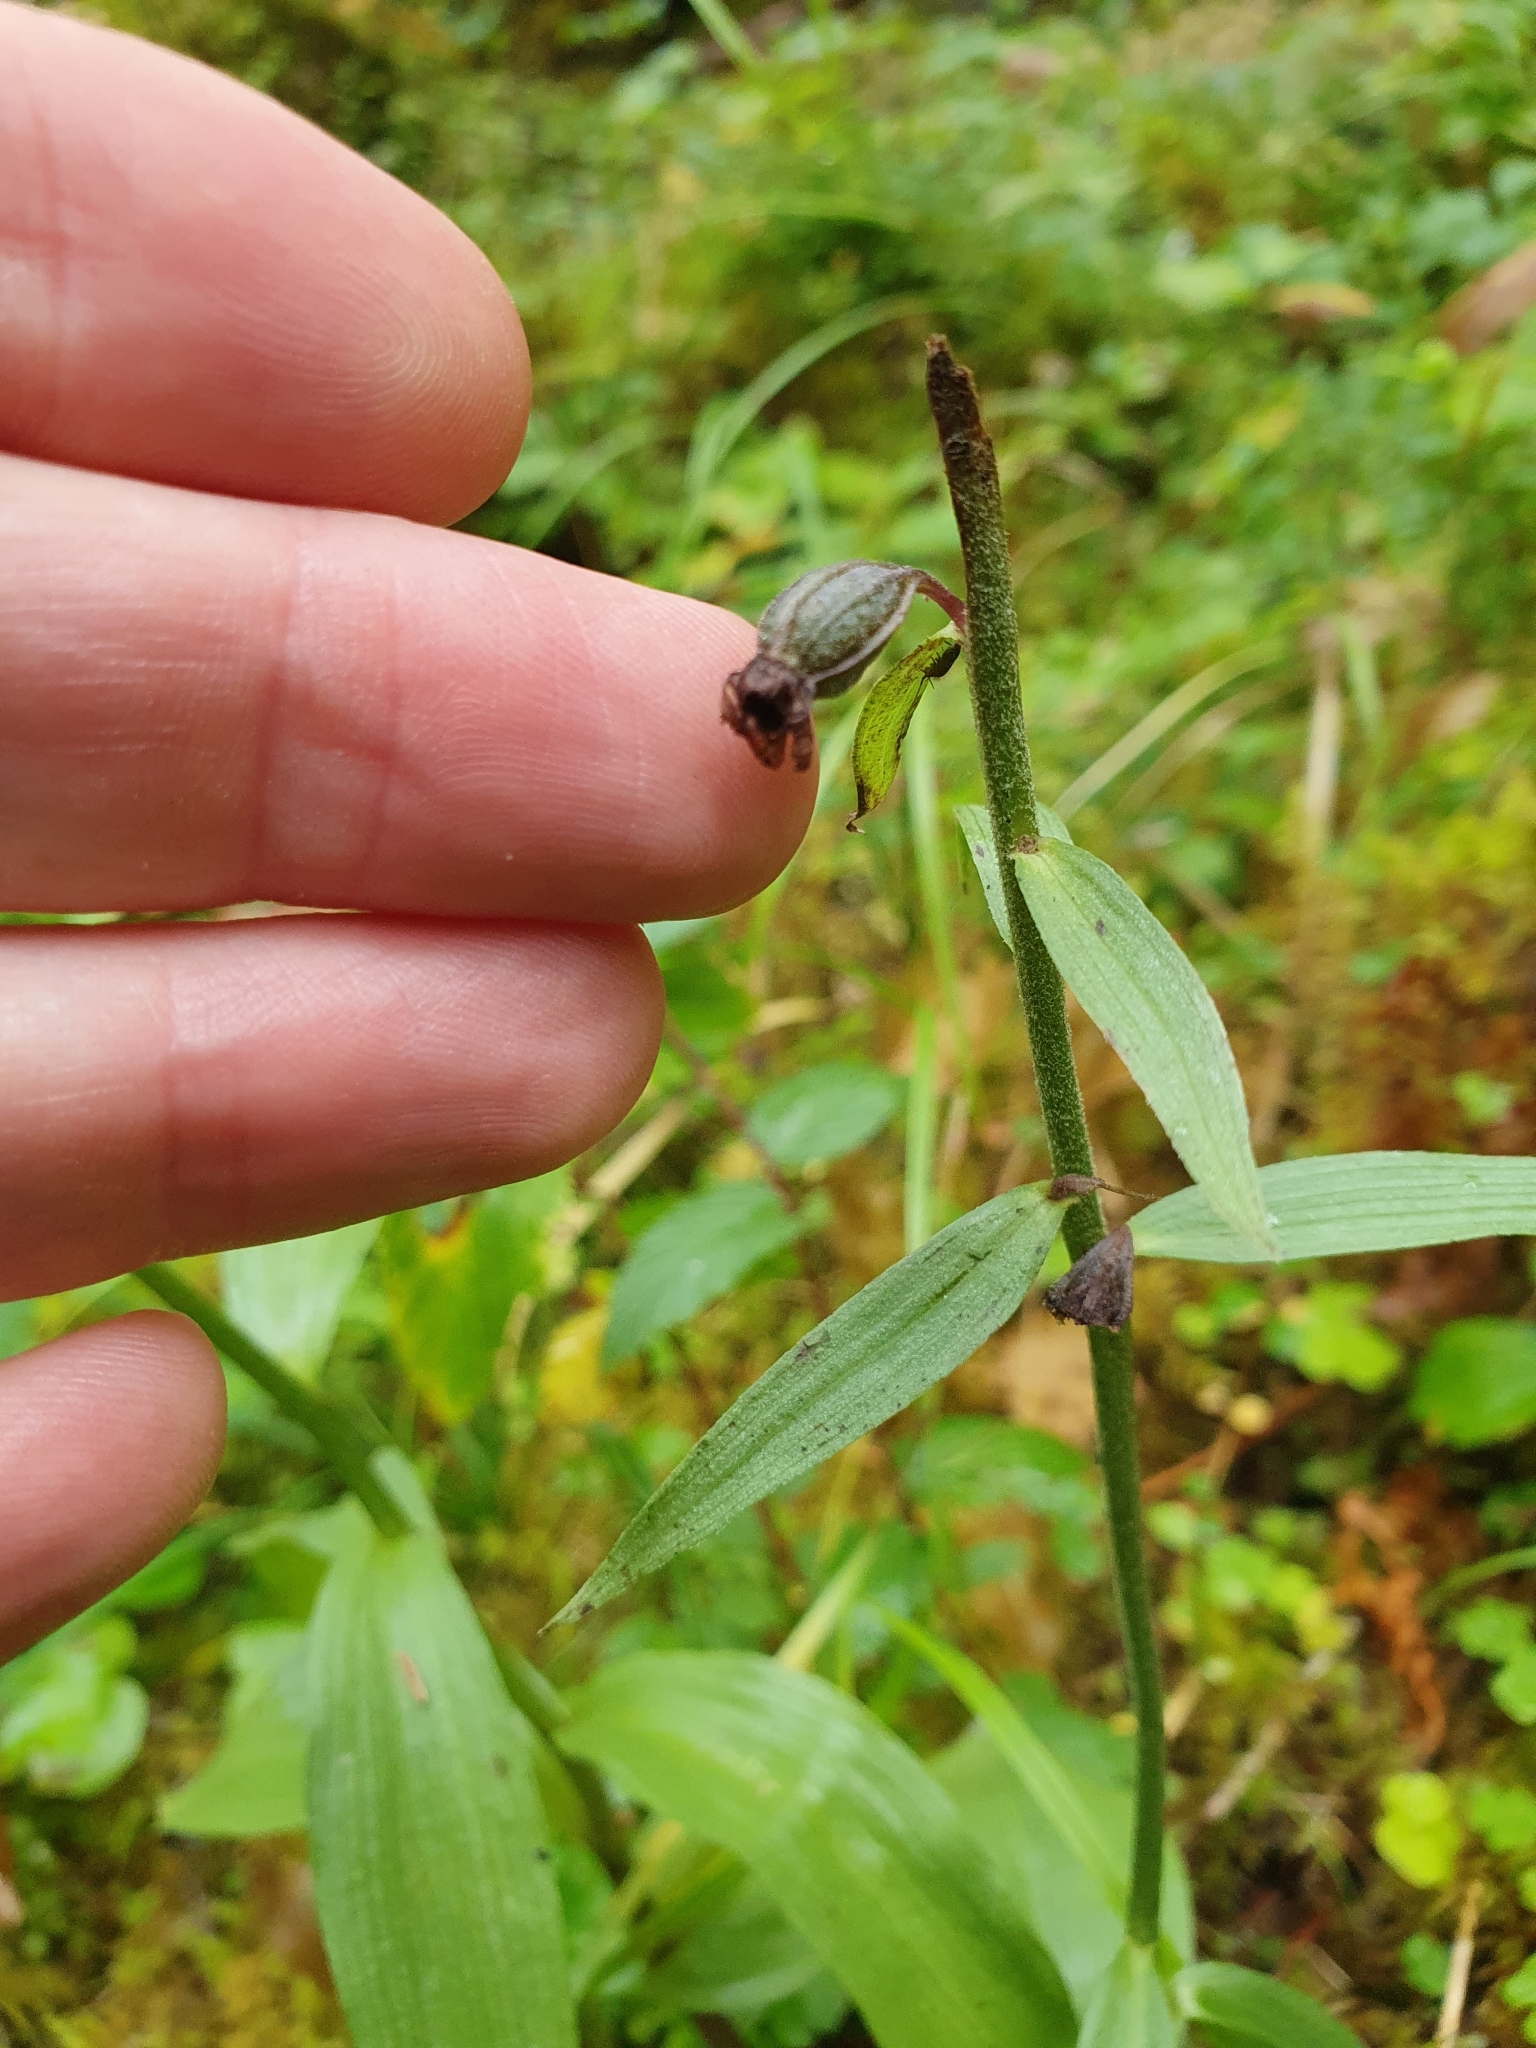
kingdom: Plantae
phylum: Tracheophyta
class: Liliopsida
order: Asparagales
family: Orchidaceae
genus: Epipactis
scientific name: Epipactis atrorubens
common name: Dark-red helleborine
